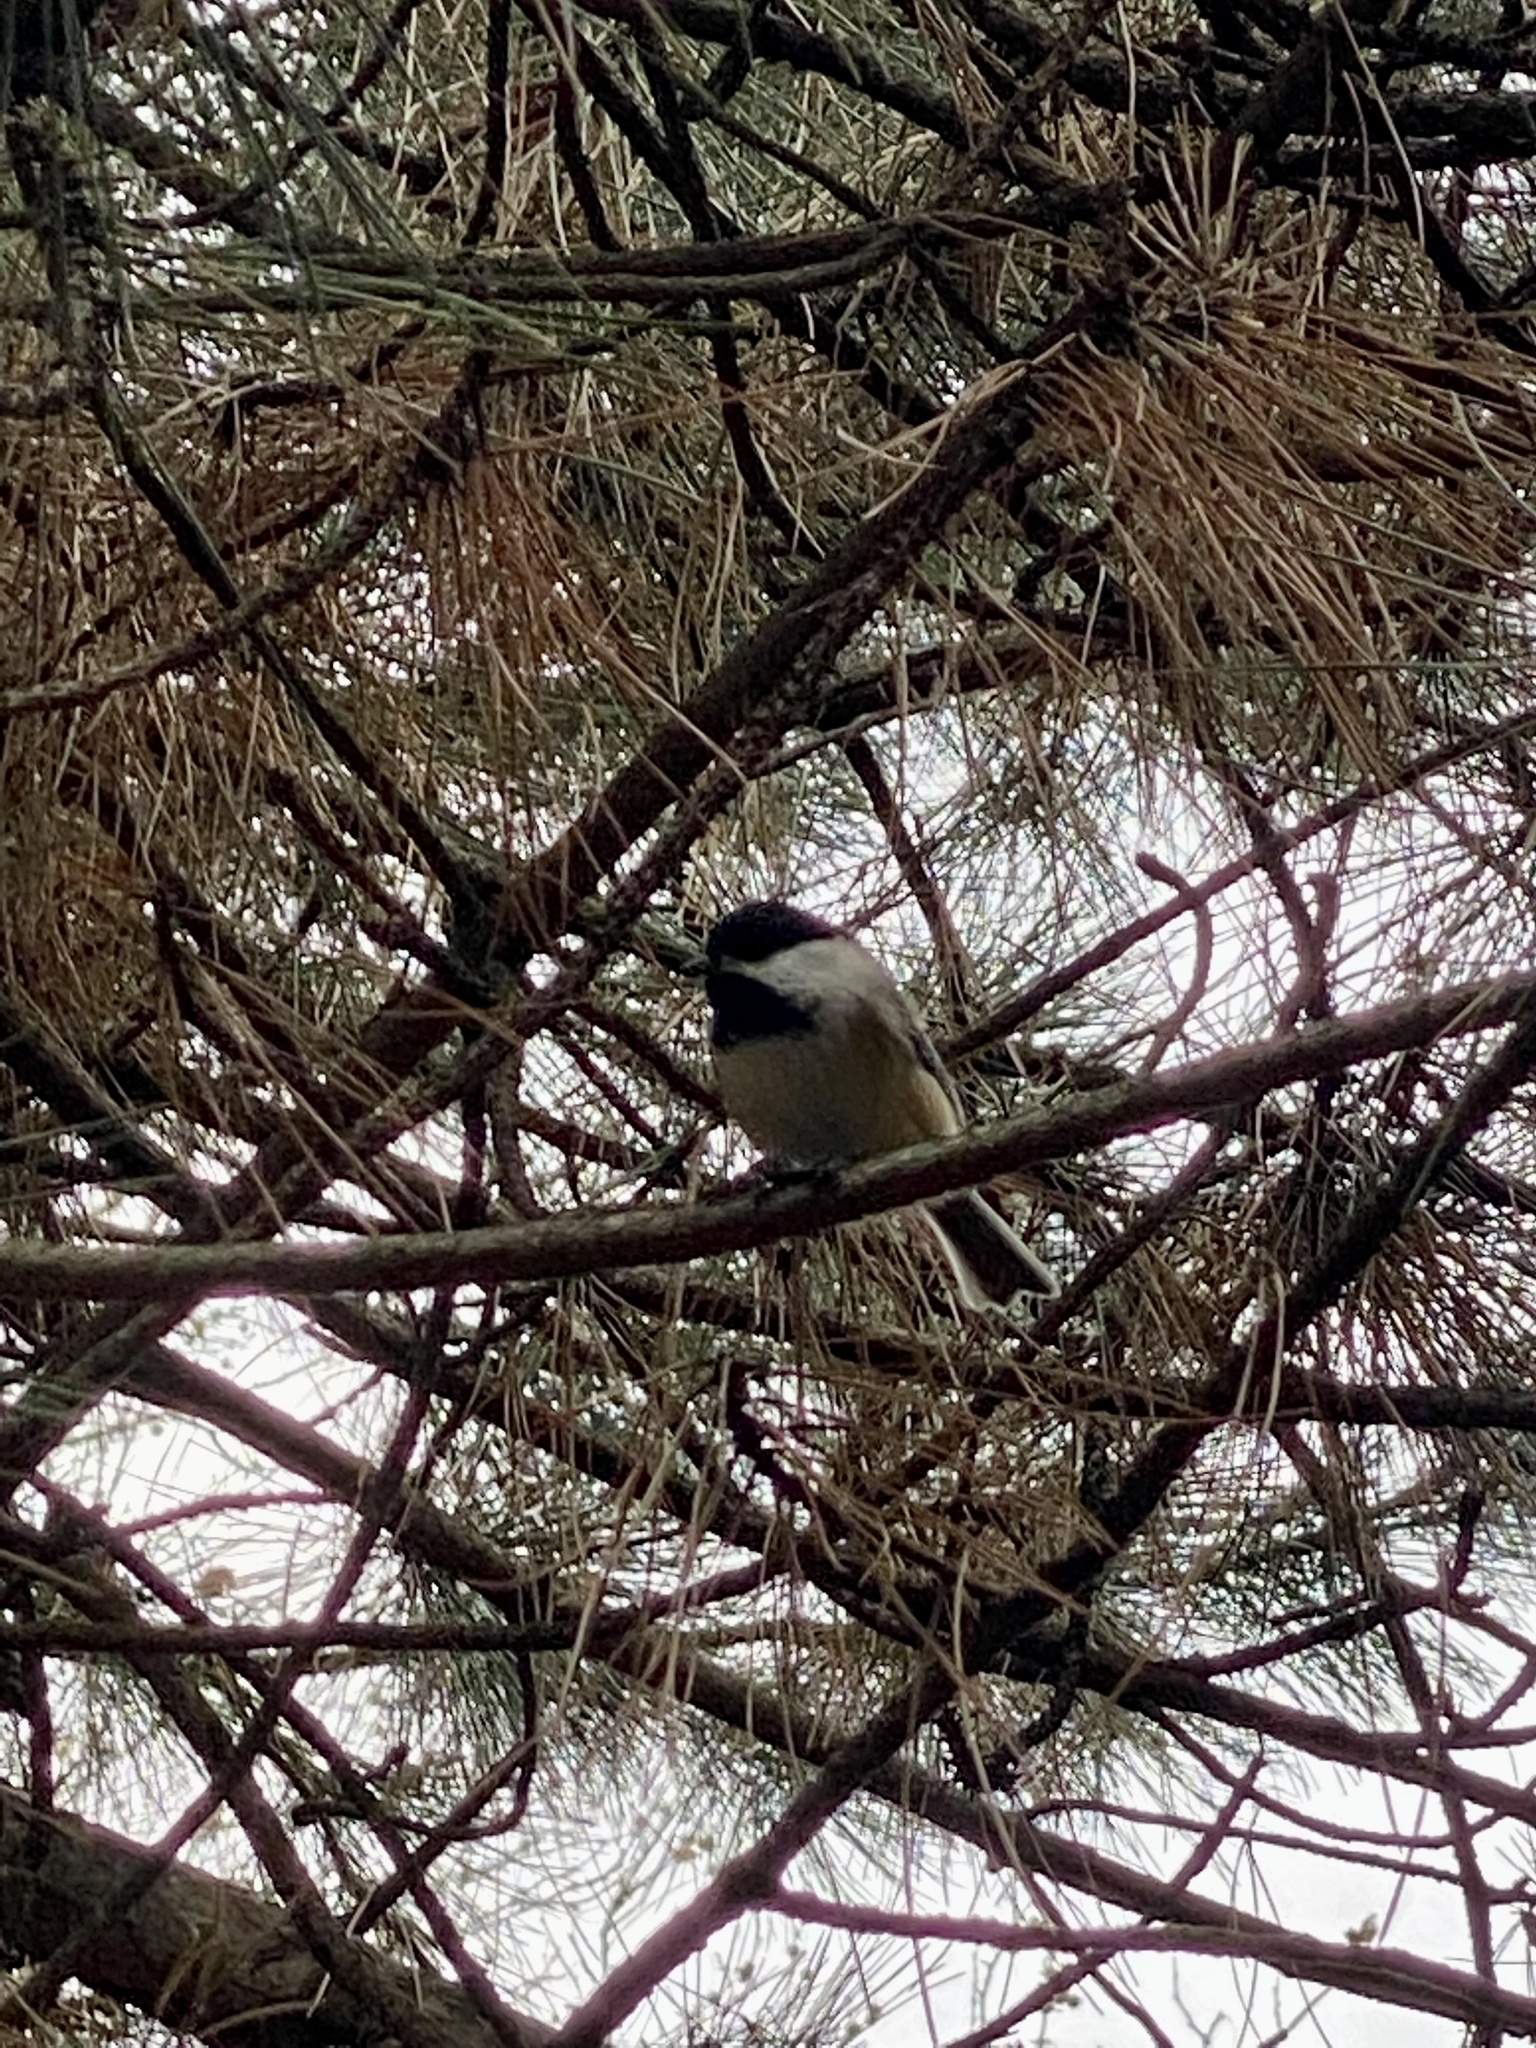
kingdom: Animalia
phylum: Chordata
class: Aves
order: Passeriformes
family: Paridae
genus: Poecile
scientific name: Poecile atricapillus
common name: Black-capped chickadee
